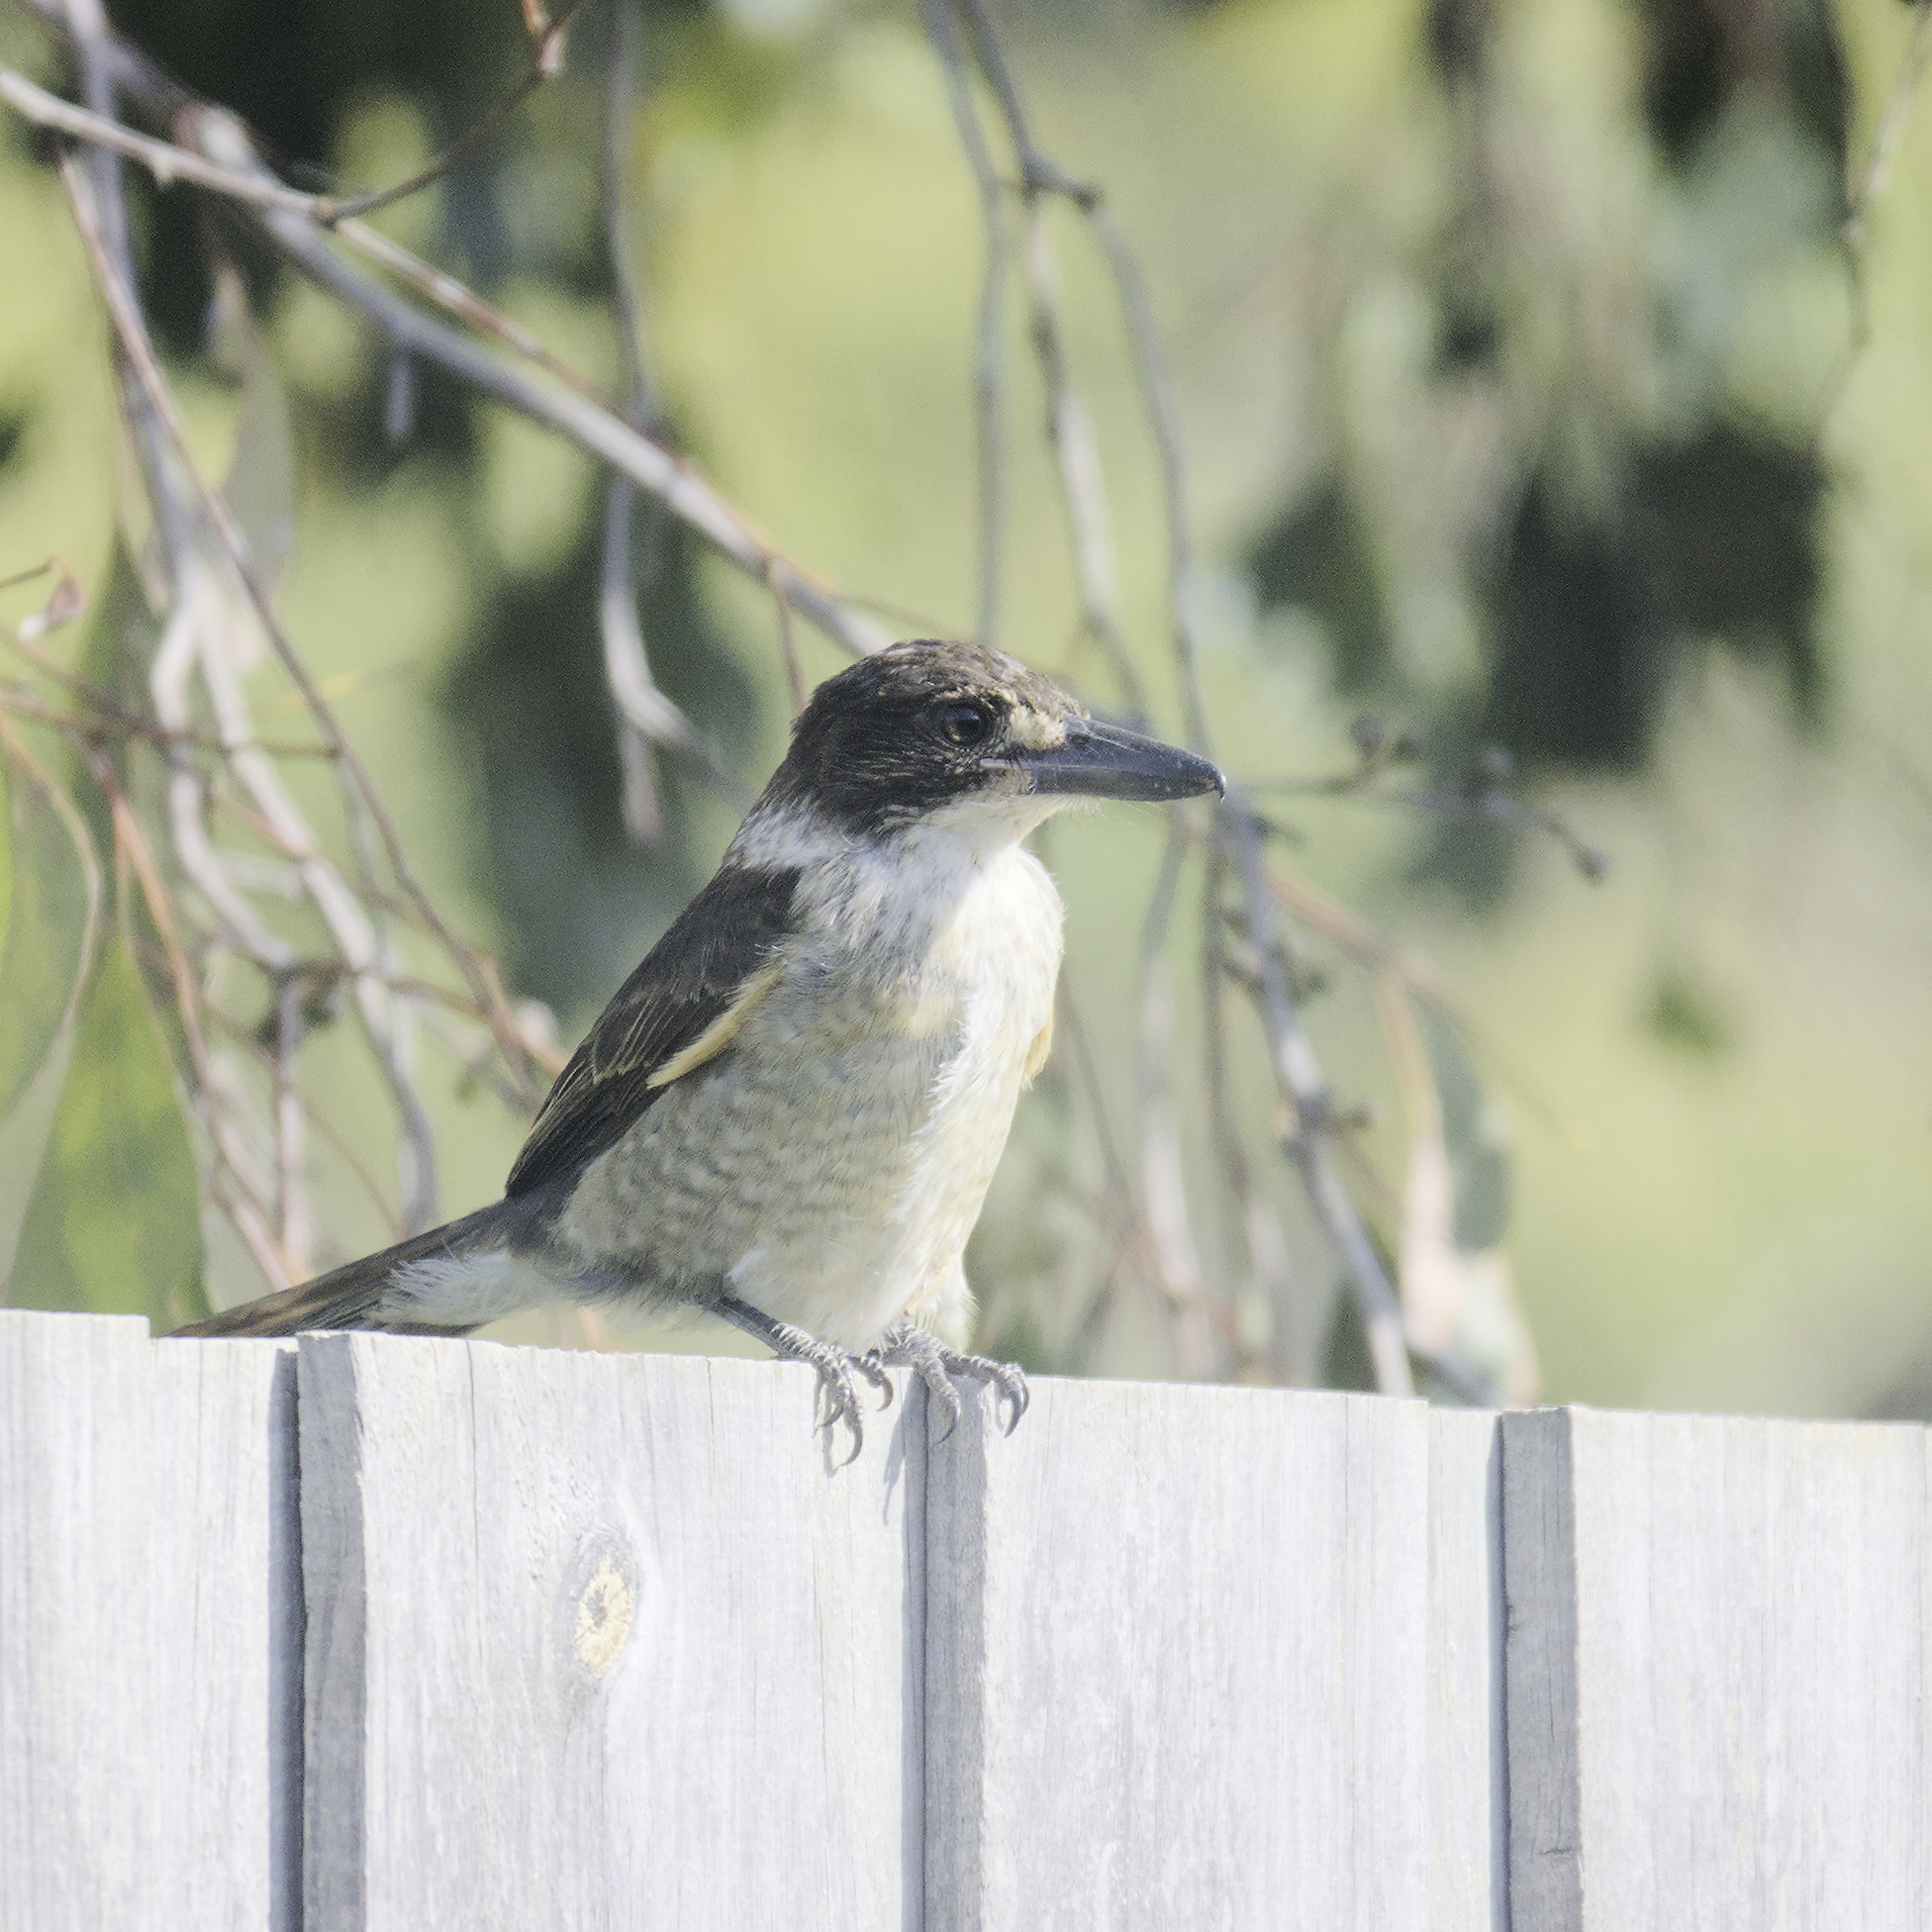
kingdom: Animalia
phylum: Chordata
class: Aves
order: Passeriformes
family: Cracticidae
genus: Cracticus
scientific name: Cracticus torquatus
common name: Grey butcherbird
